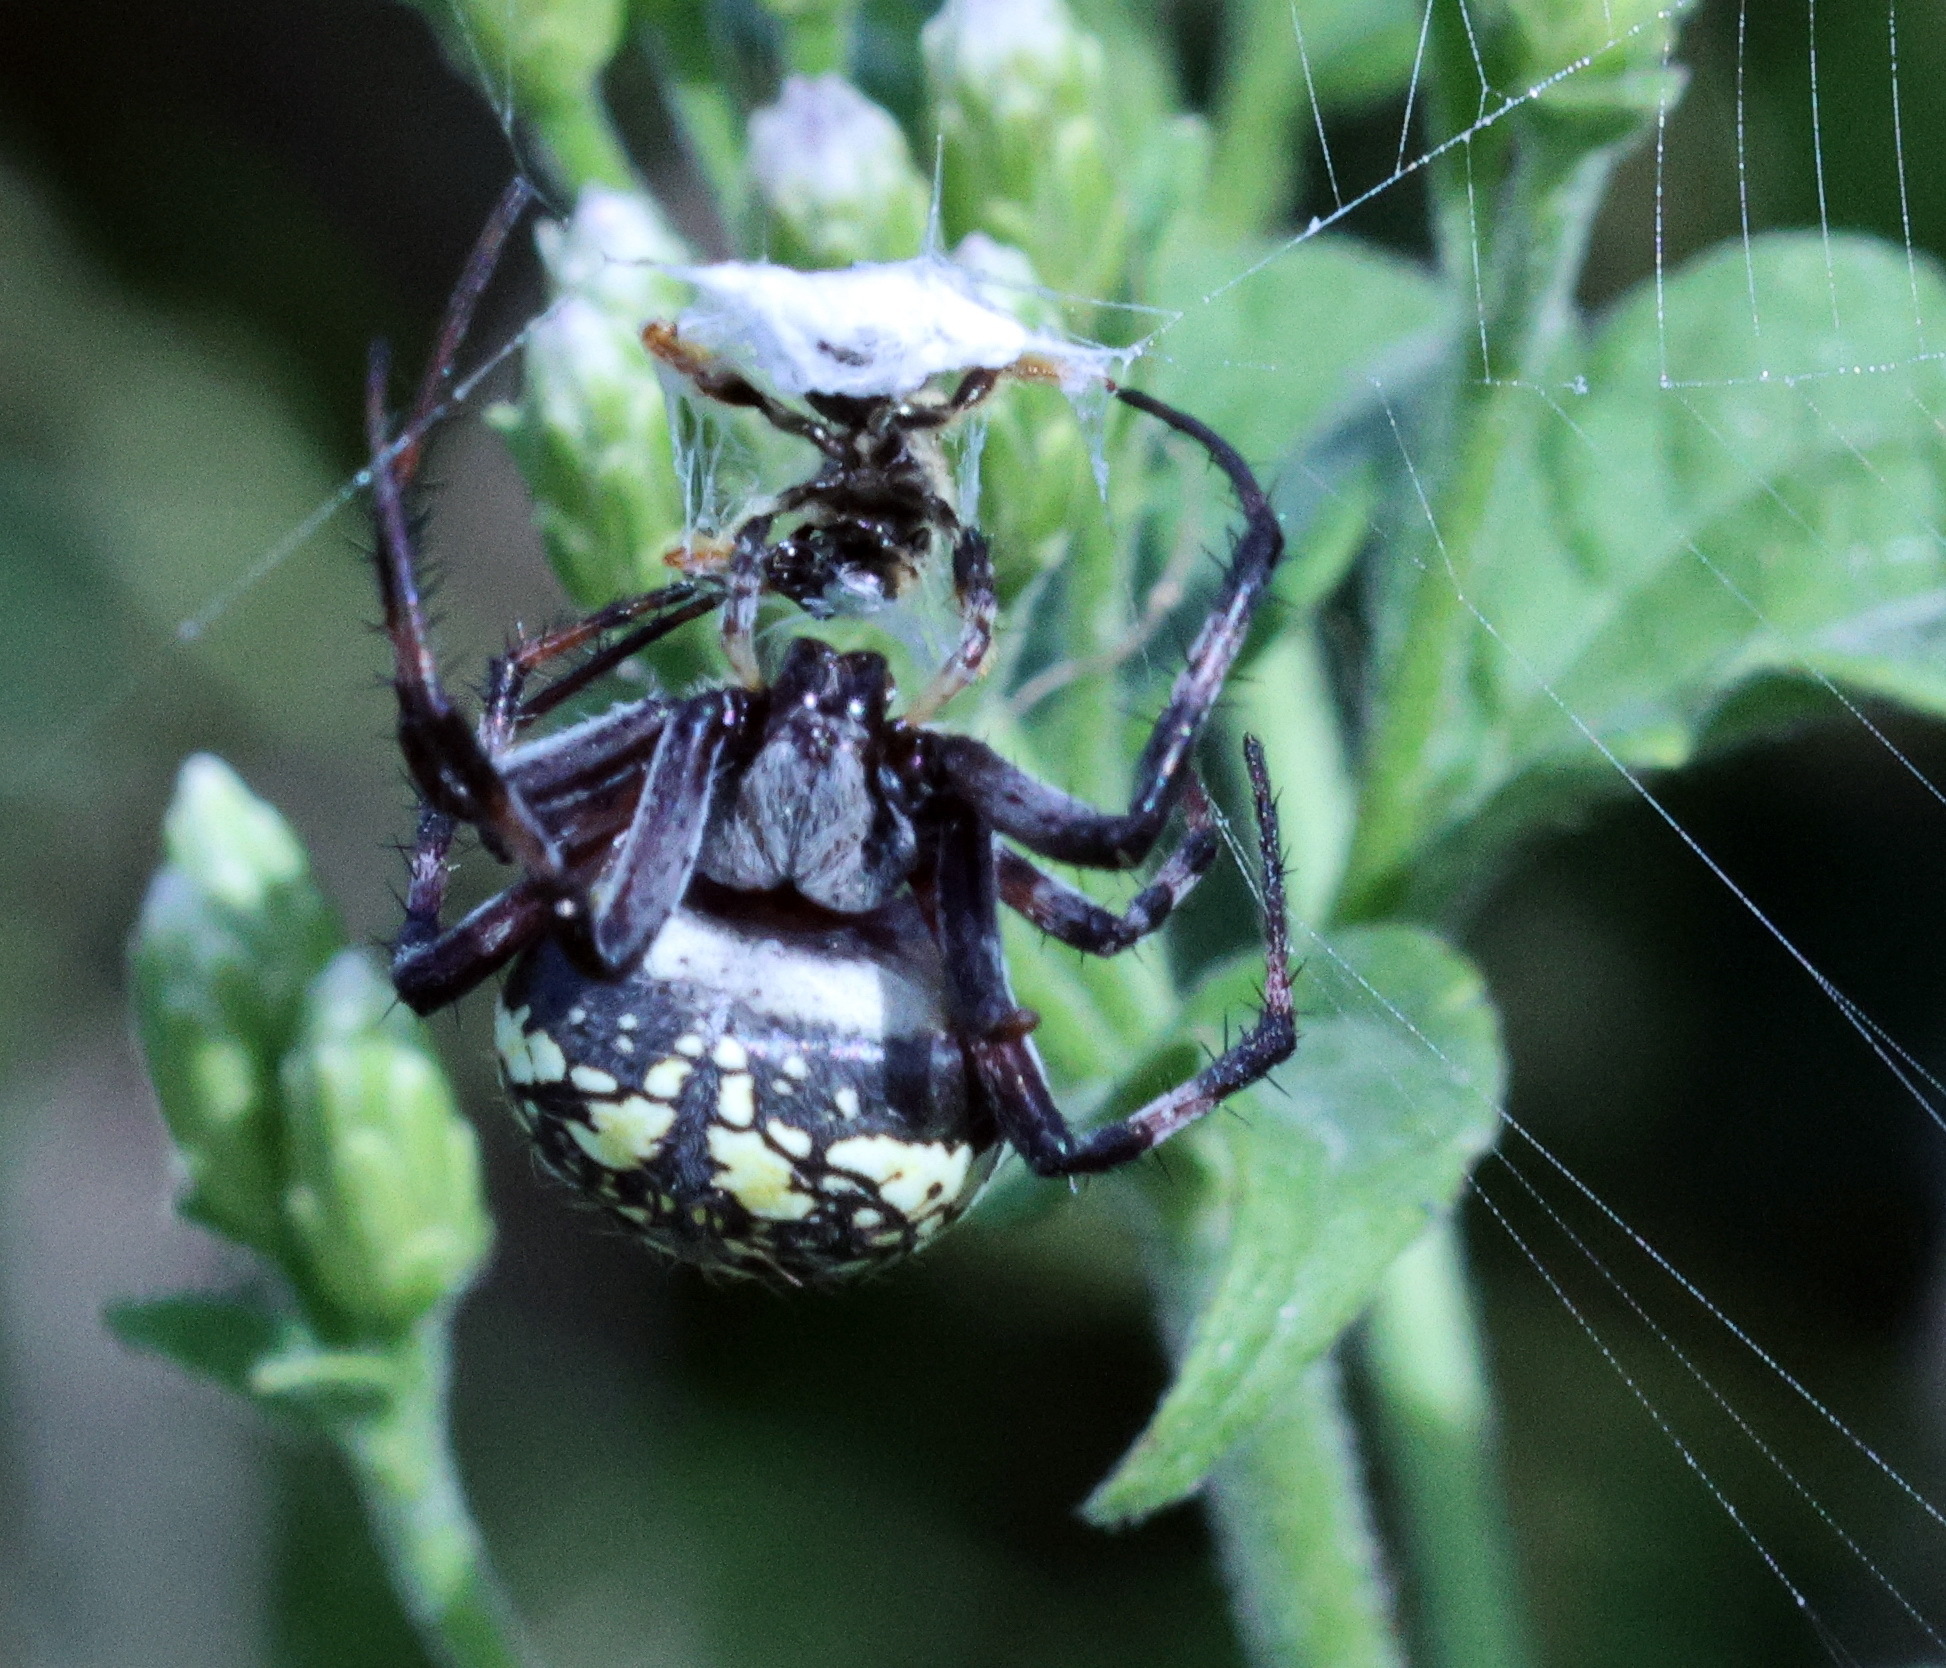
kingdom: Animalia
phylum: Arthropoda
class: Arachnida
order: Araneae
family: Araneidae
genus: Neoscona
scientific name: Neoscona oaxacensis
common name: Orb weavers
